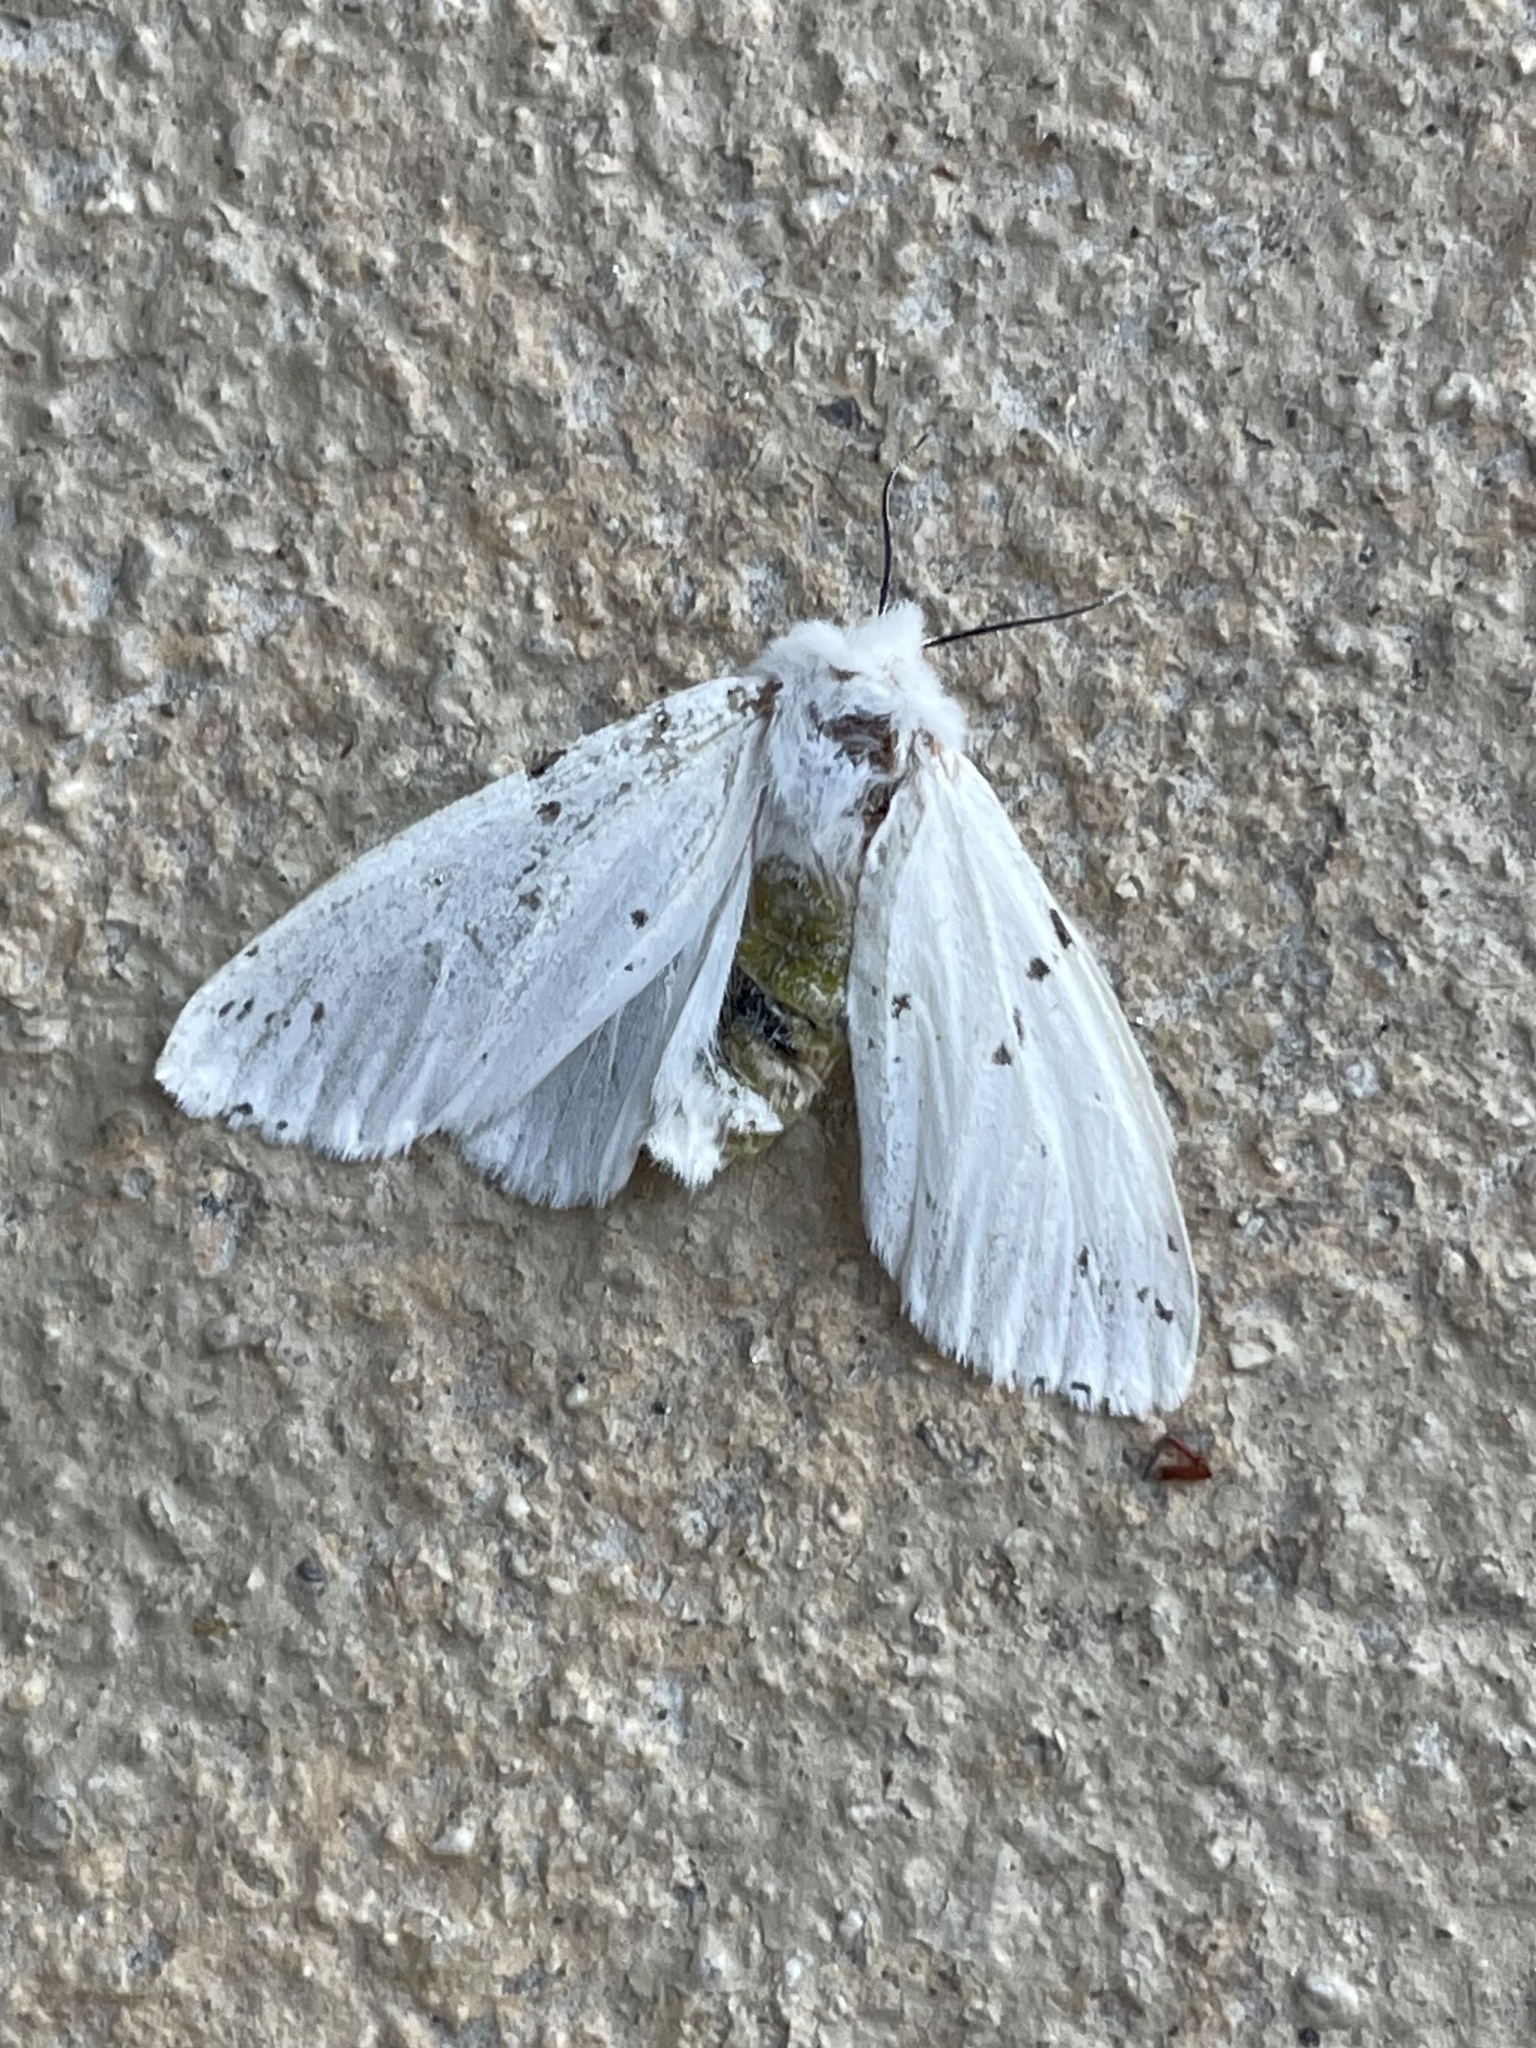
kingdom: Animalia
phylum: Arthropoda
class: Insecta
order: Lepidoptera
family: Erebidae
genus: Hyphantria
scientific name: Hyphantria cunea
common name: American white moth
